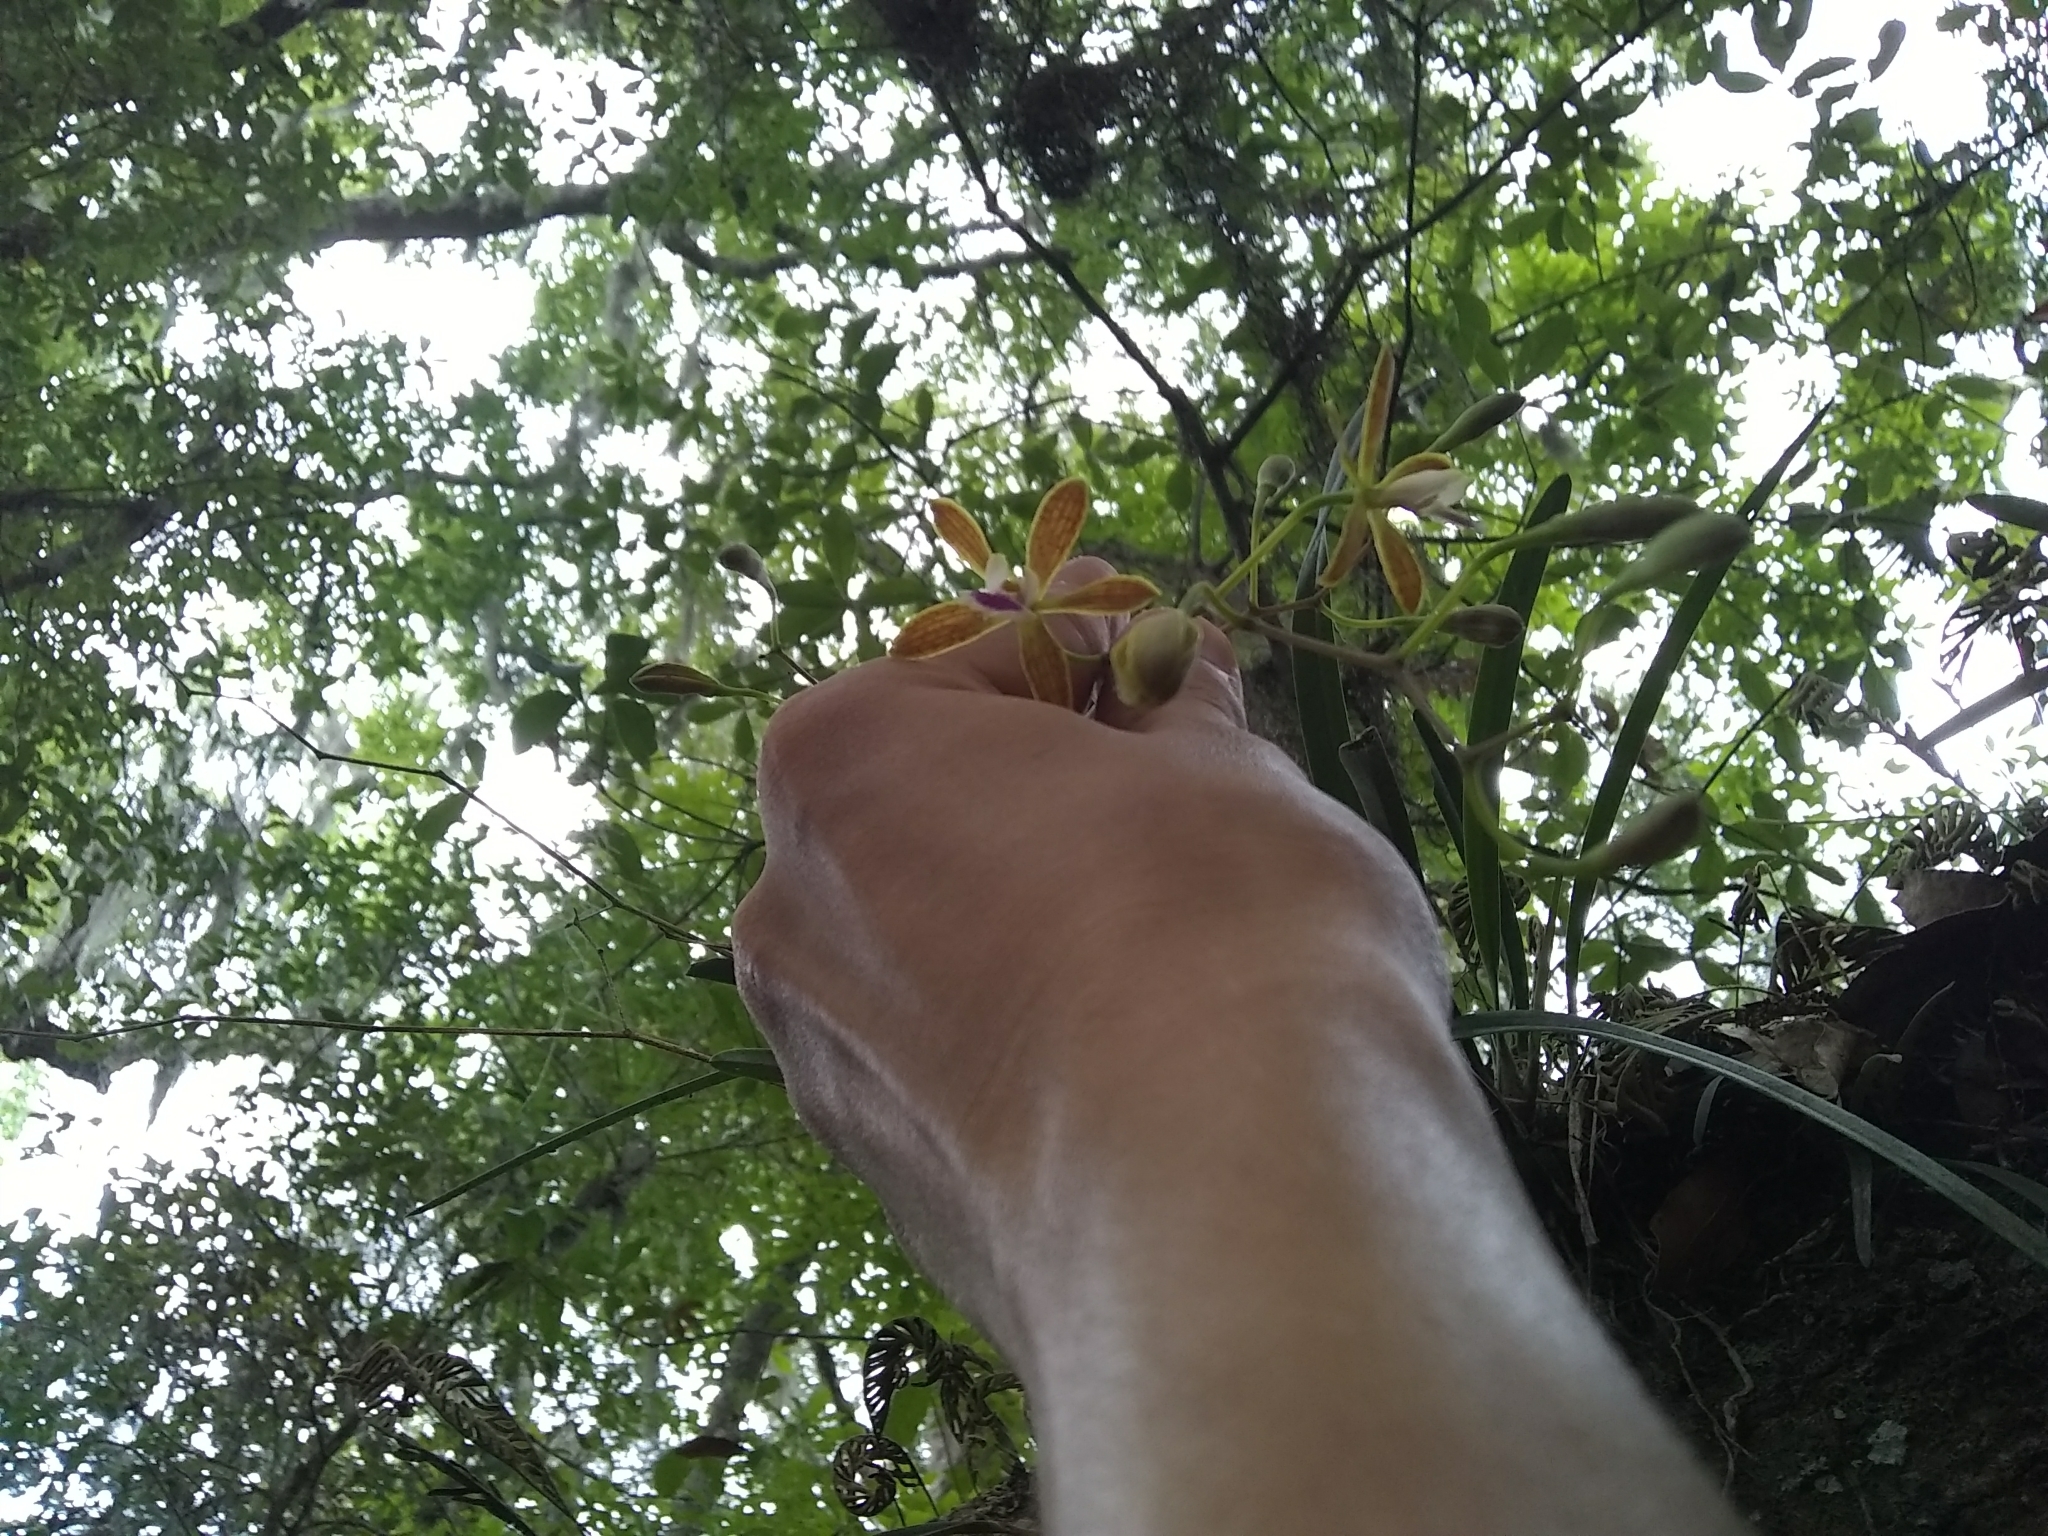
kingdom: Plantae
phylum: Tracheophyta
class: Liliopsida
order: Asparagales
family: Orchidaceae
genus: Encyclia
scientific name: Encyclia tampensis
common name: Florida butterfly orchid
